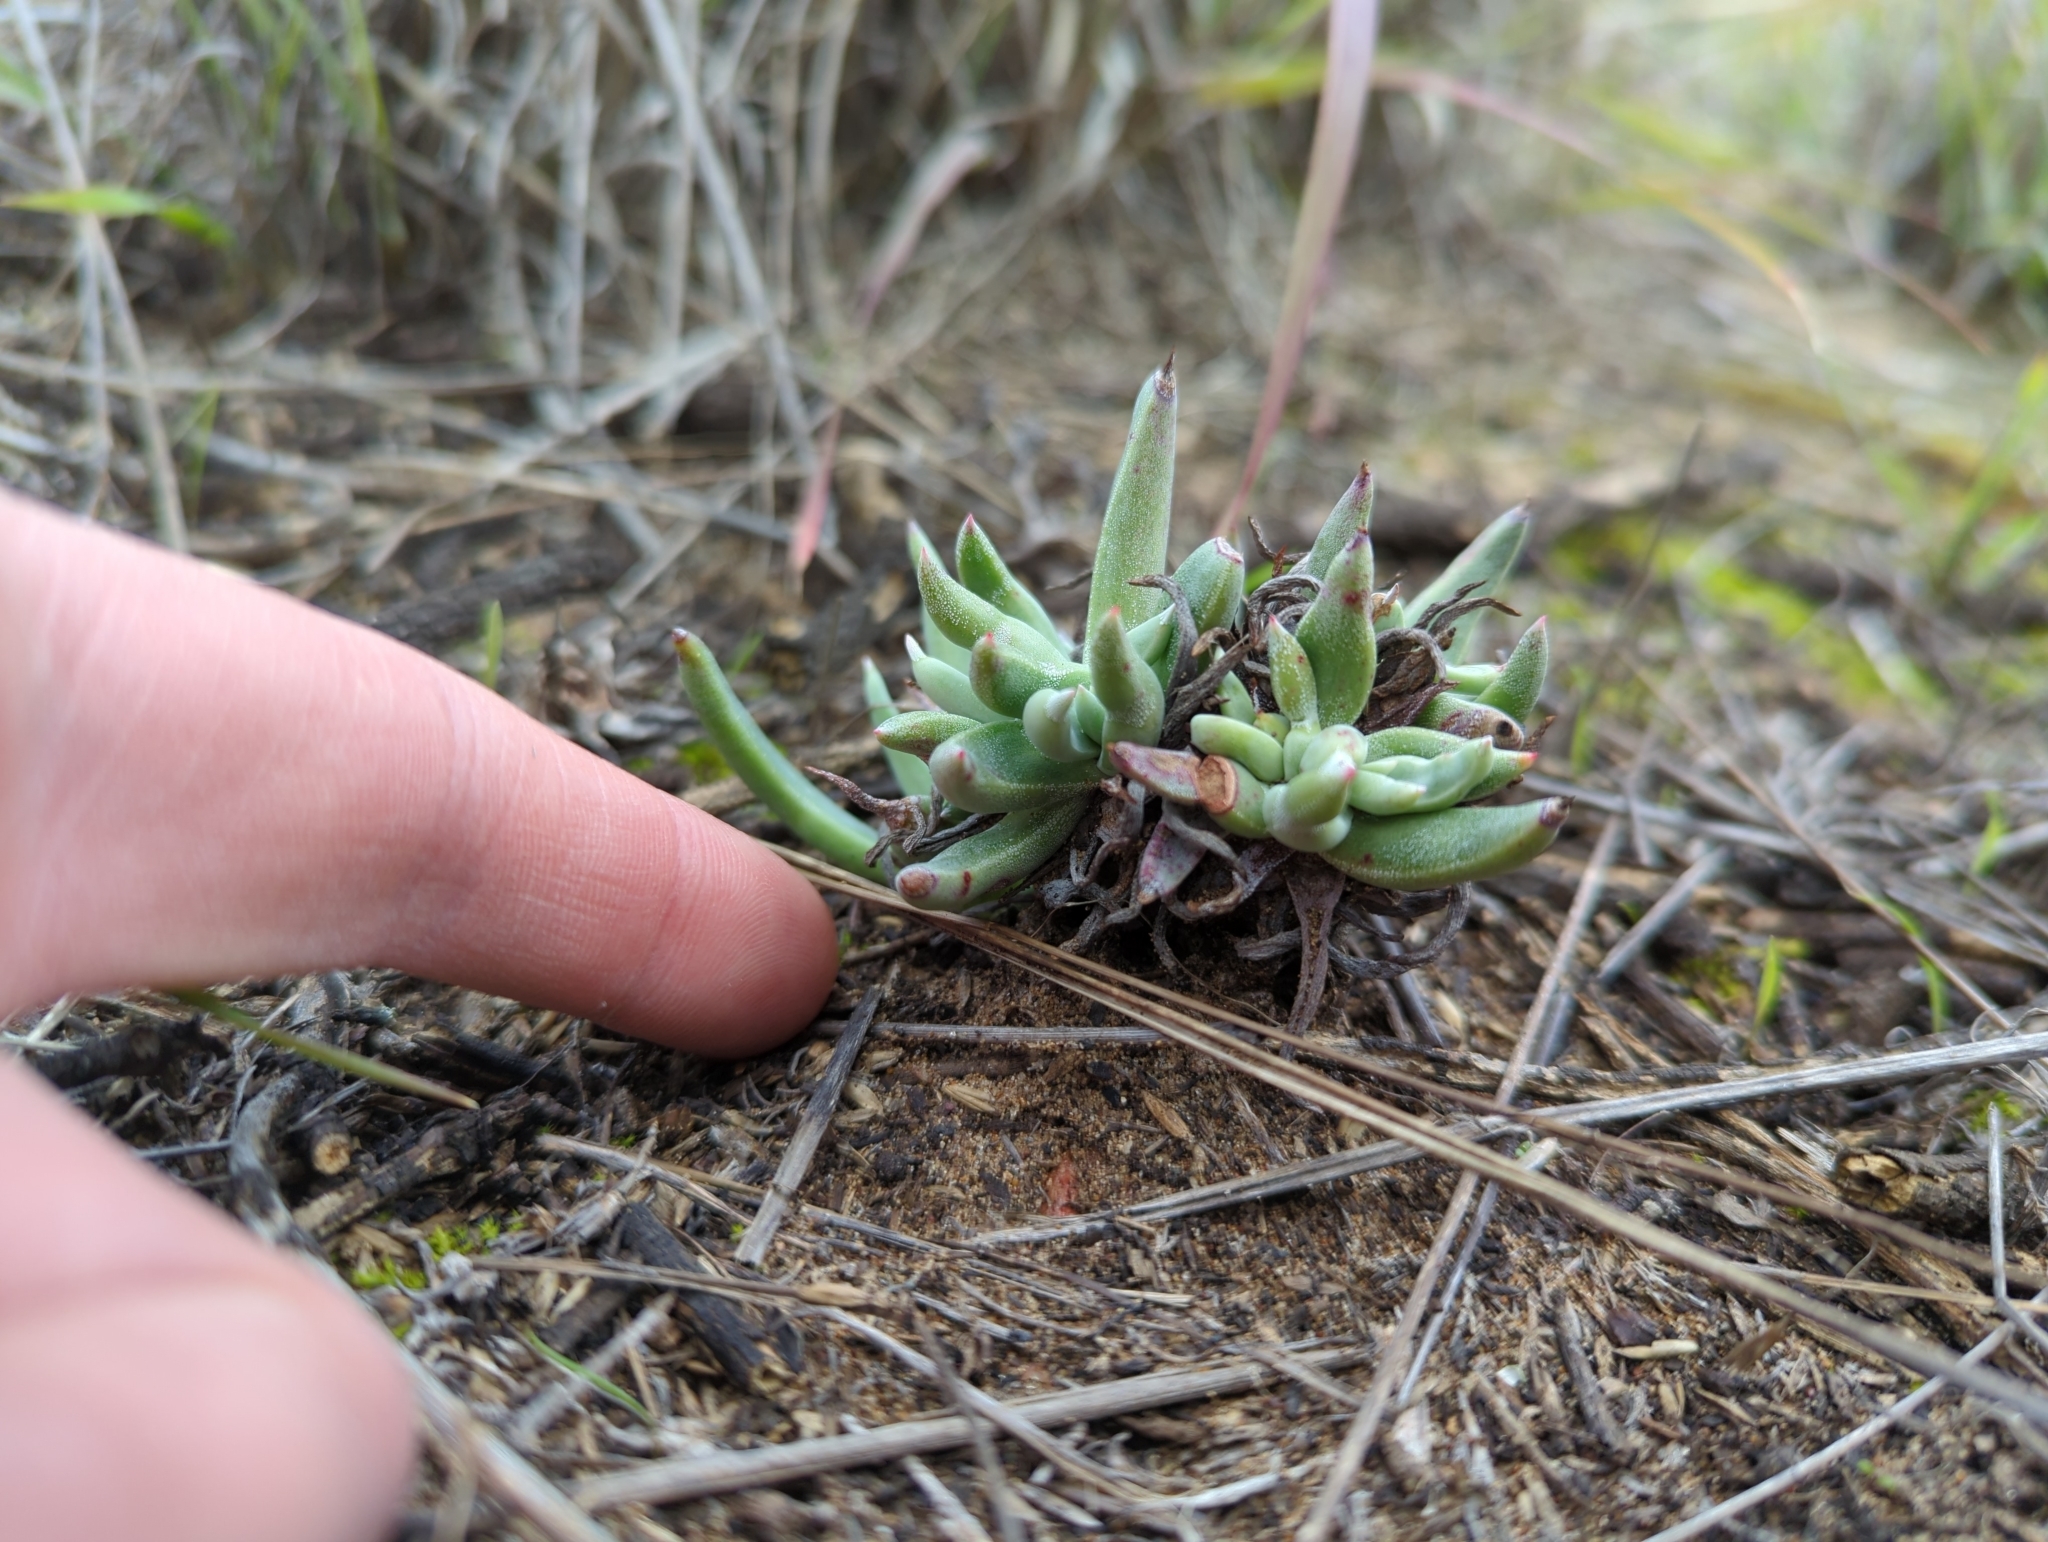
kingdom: Plantae
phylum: Tracheophyta
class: Magnoliopsida
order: Saxifragales
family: Crassulaceae
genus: Dudleya
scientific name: Dudleya caespitosa
